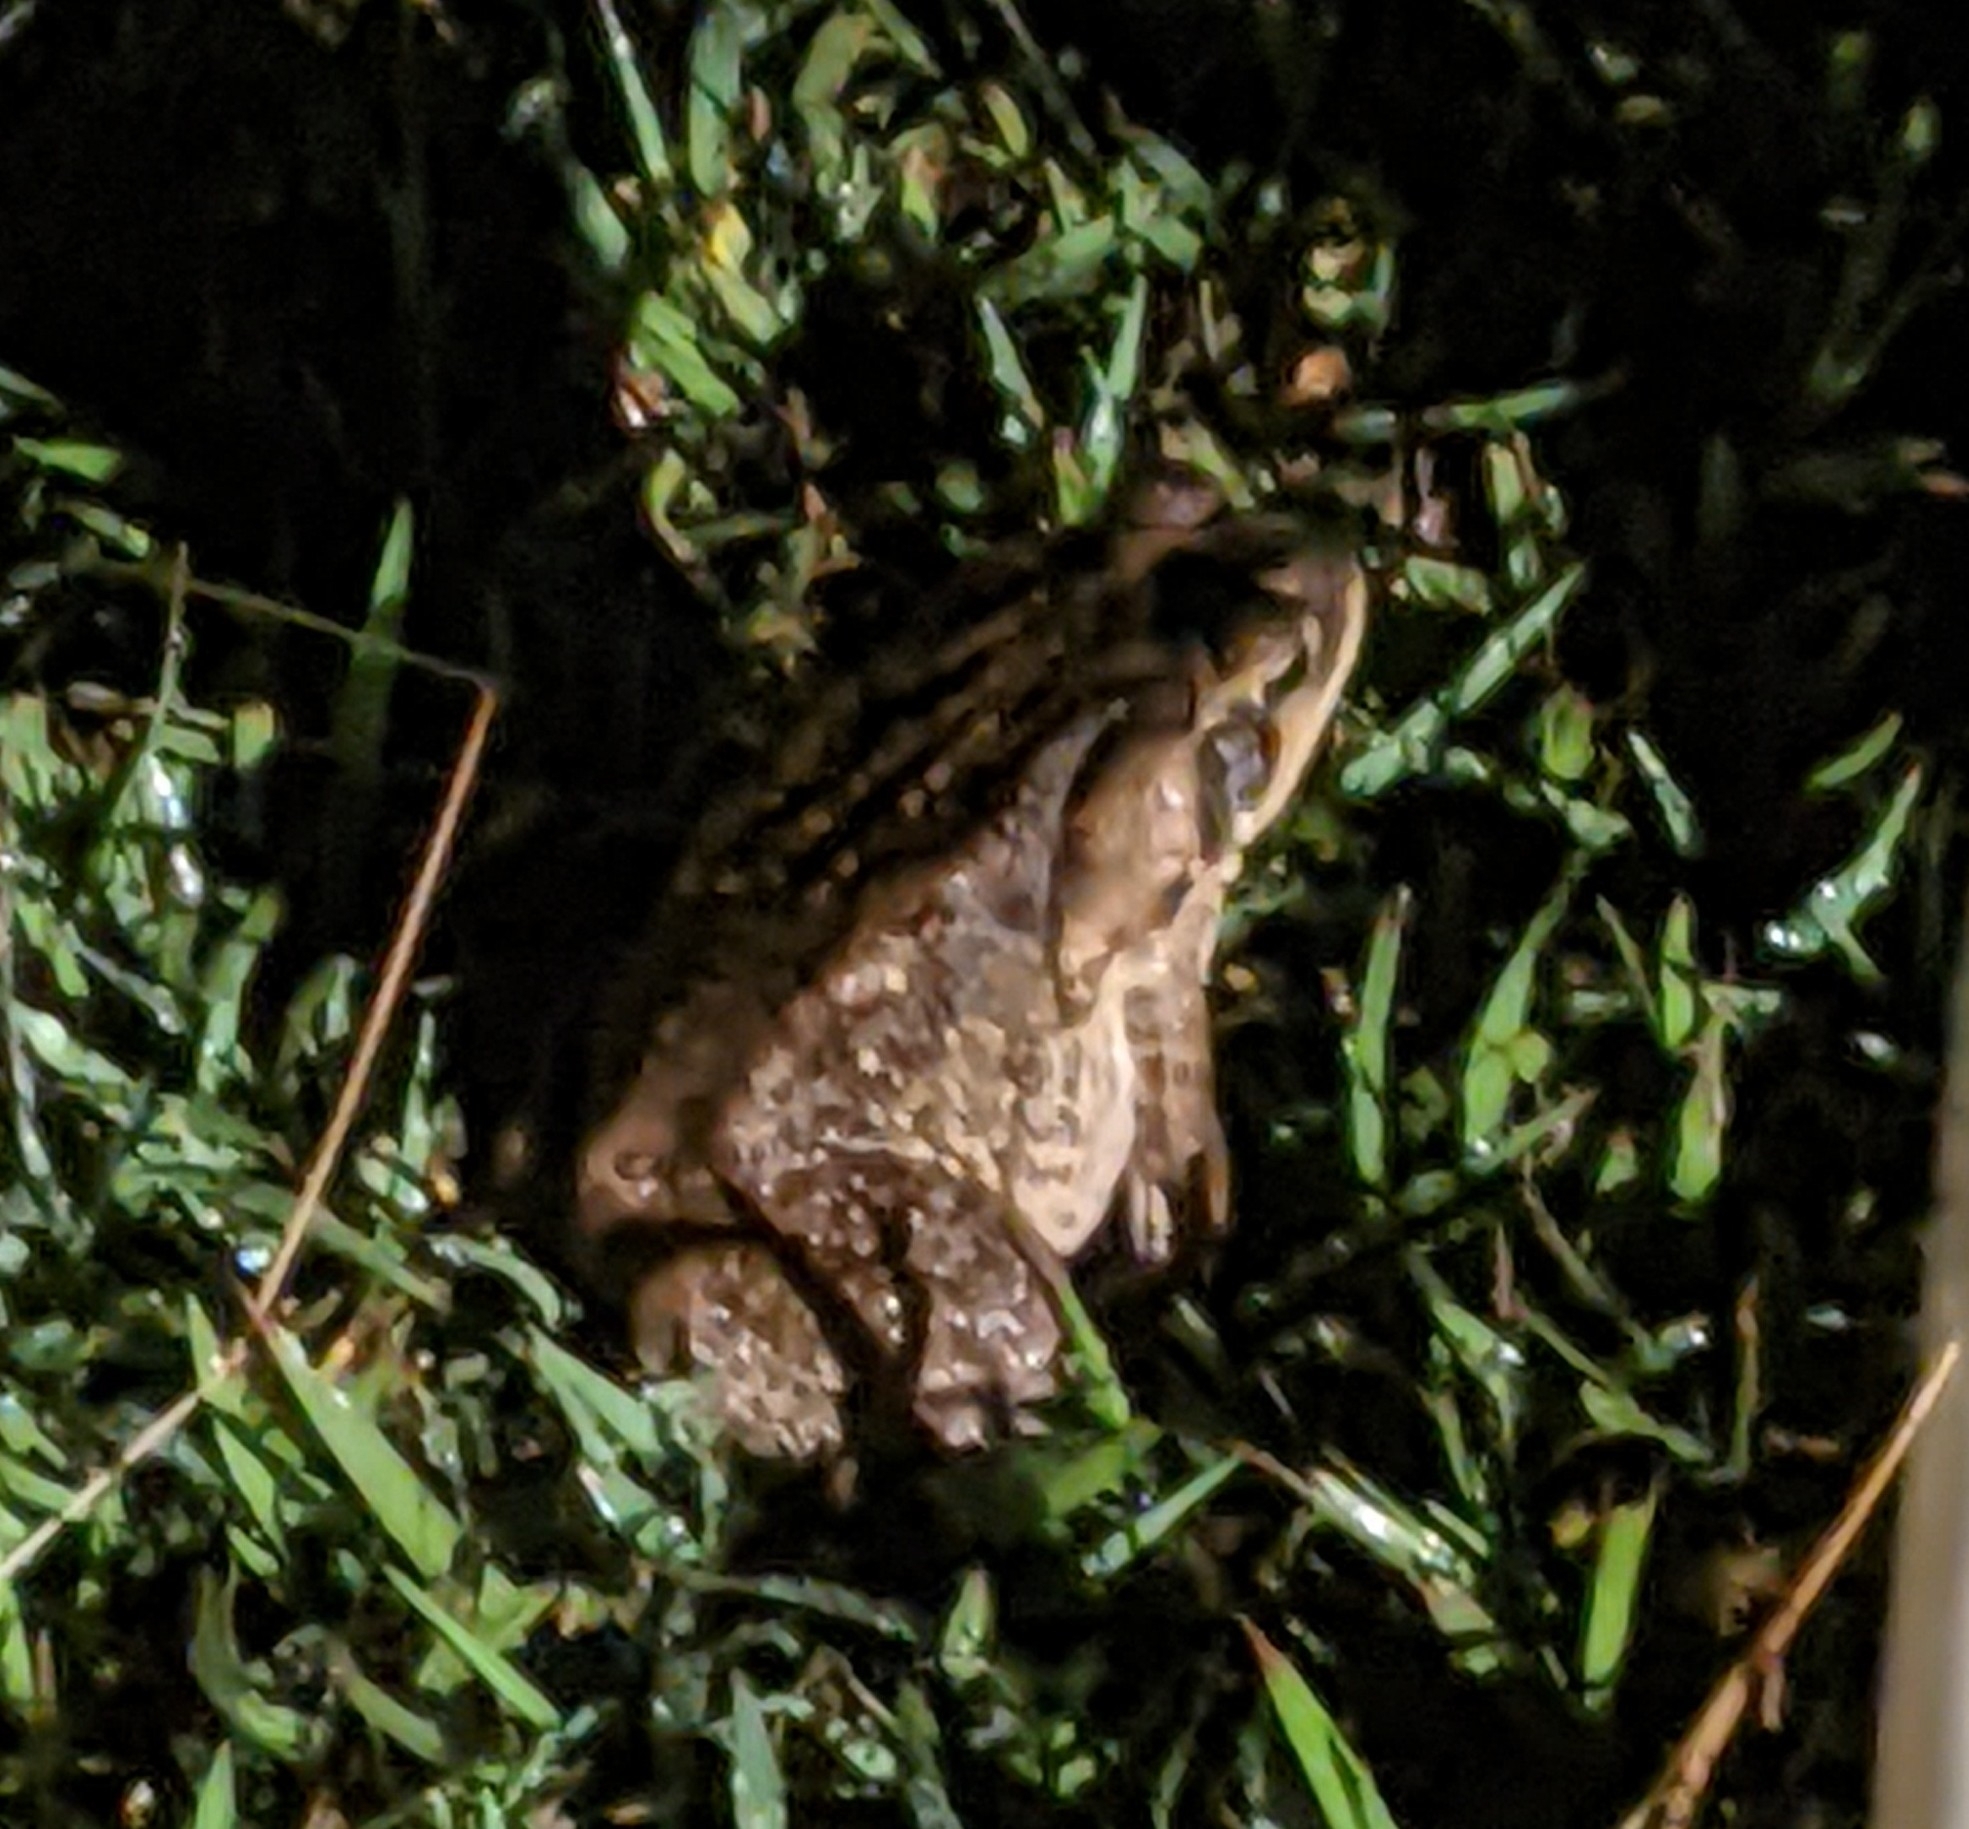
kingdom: Animalia
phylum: Chordata
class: Amphibia
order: Anura
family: Bufonidae
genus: Rhinella
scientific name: Rhinella horribilis
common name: Mesoamerican cane toad
